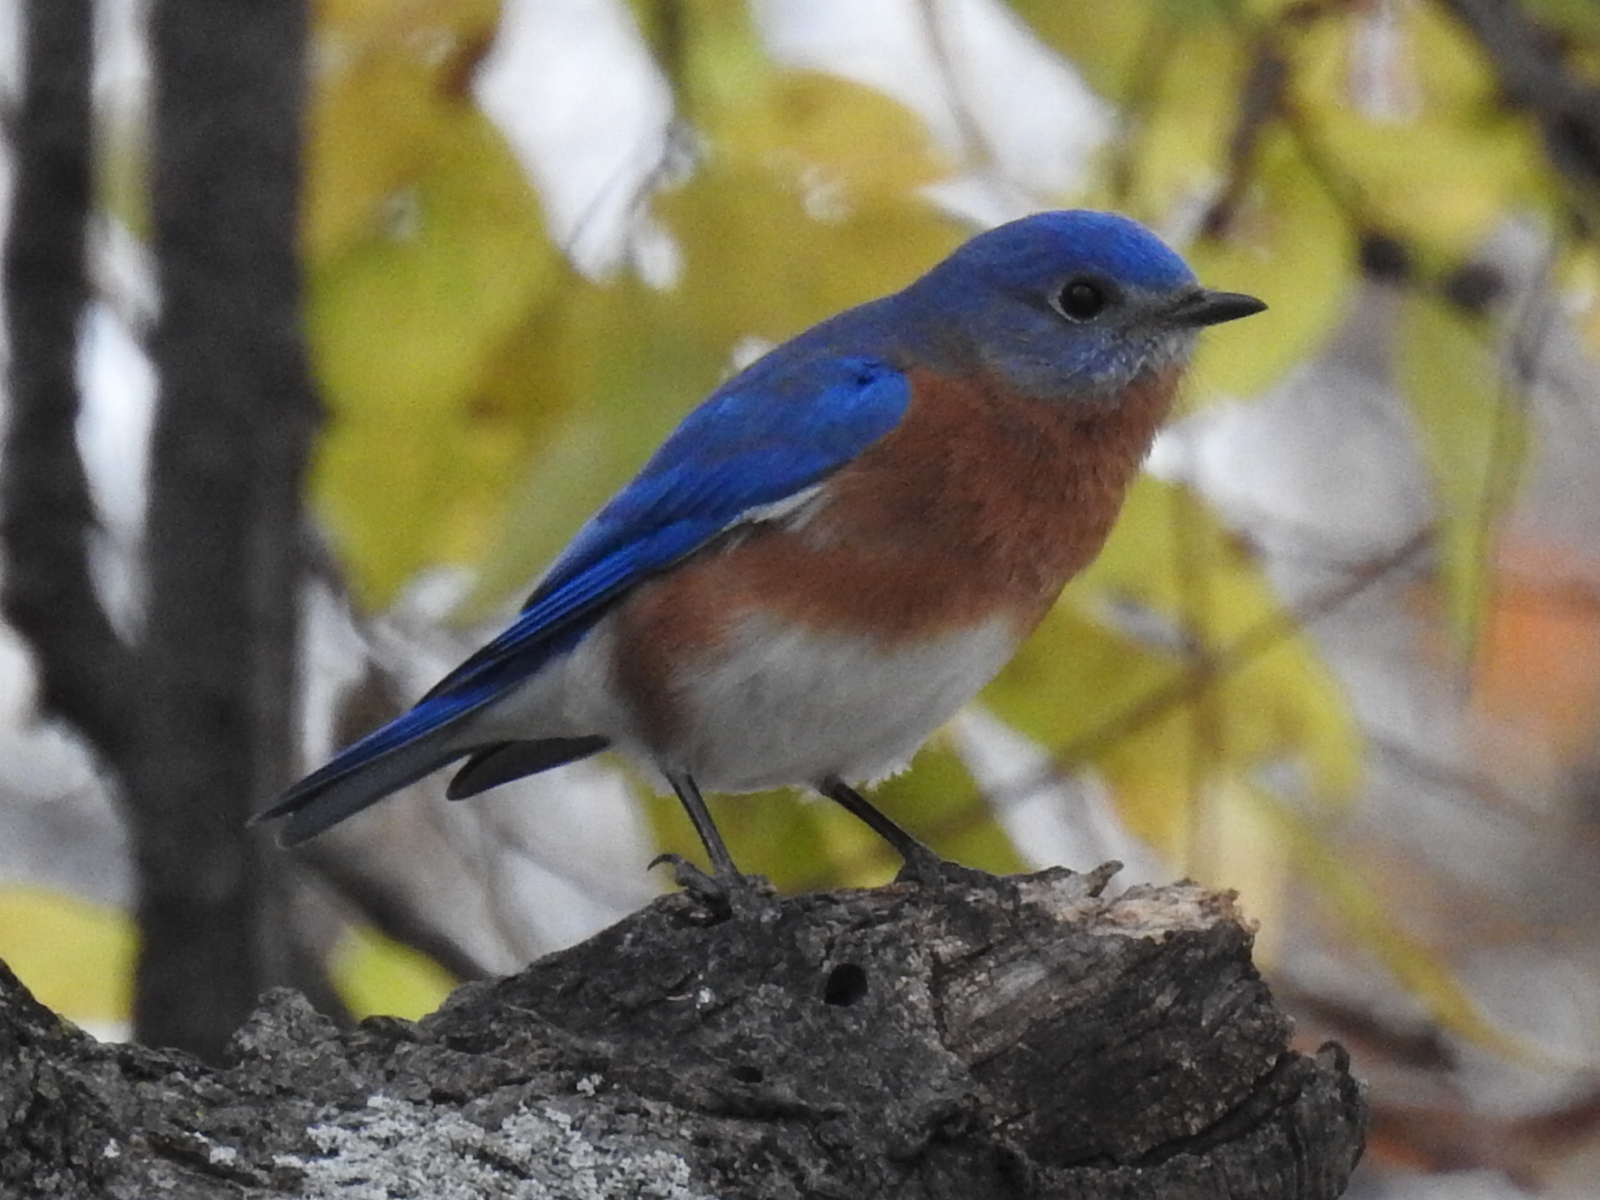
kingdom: Animalia
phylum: Chordata
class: Aves
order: Passeriformes
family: Turdidae
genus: Sialia
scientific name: Sialia sialis
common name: Eastern bluebird
